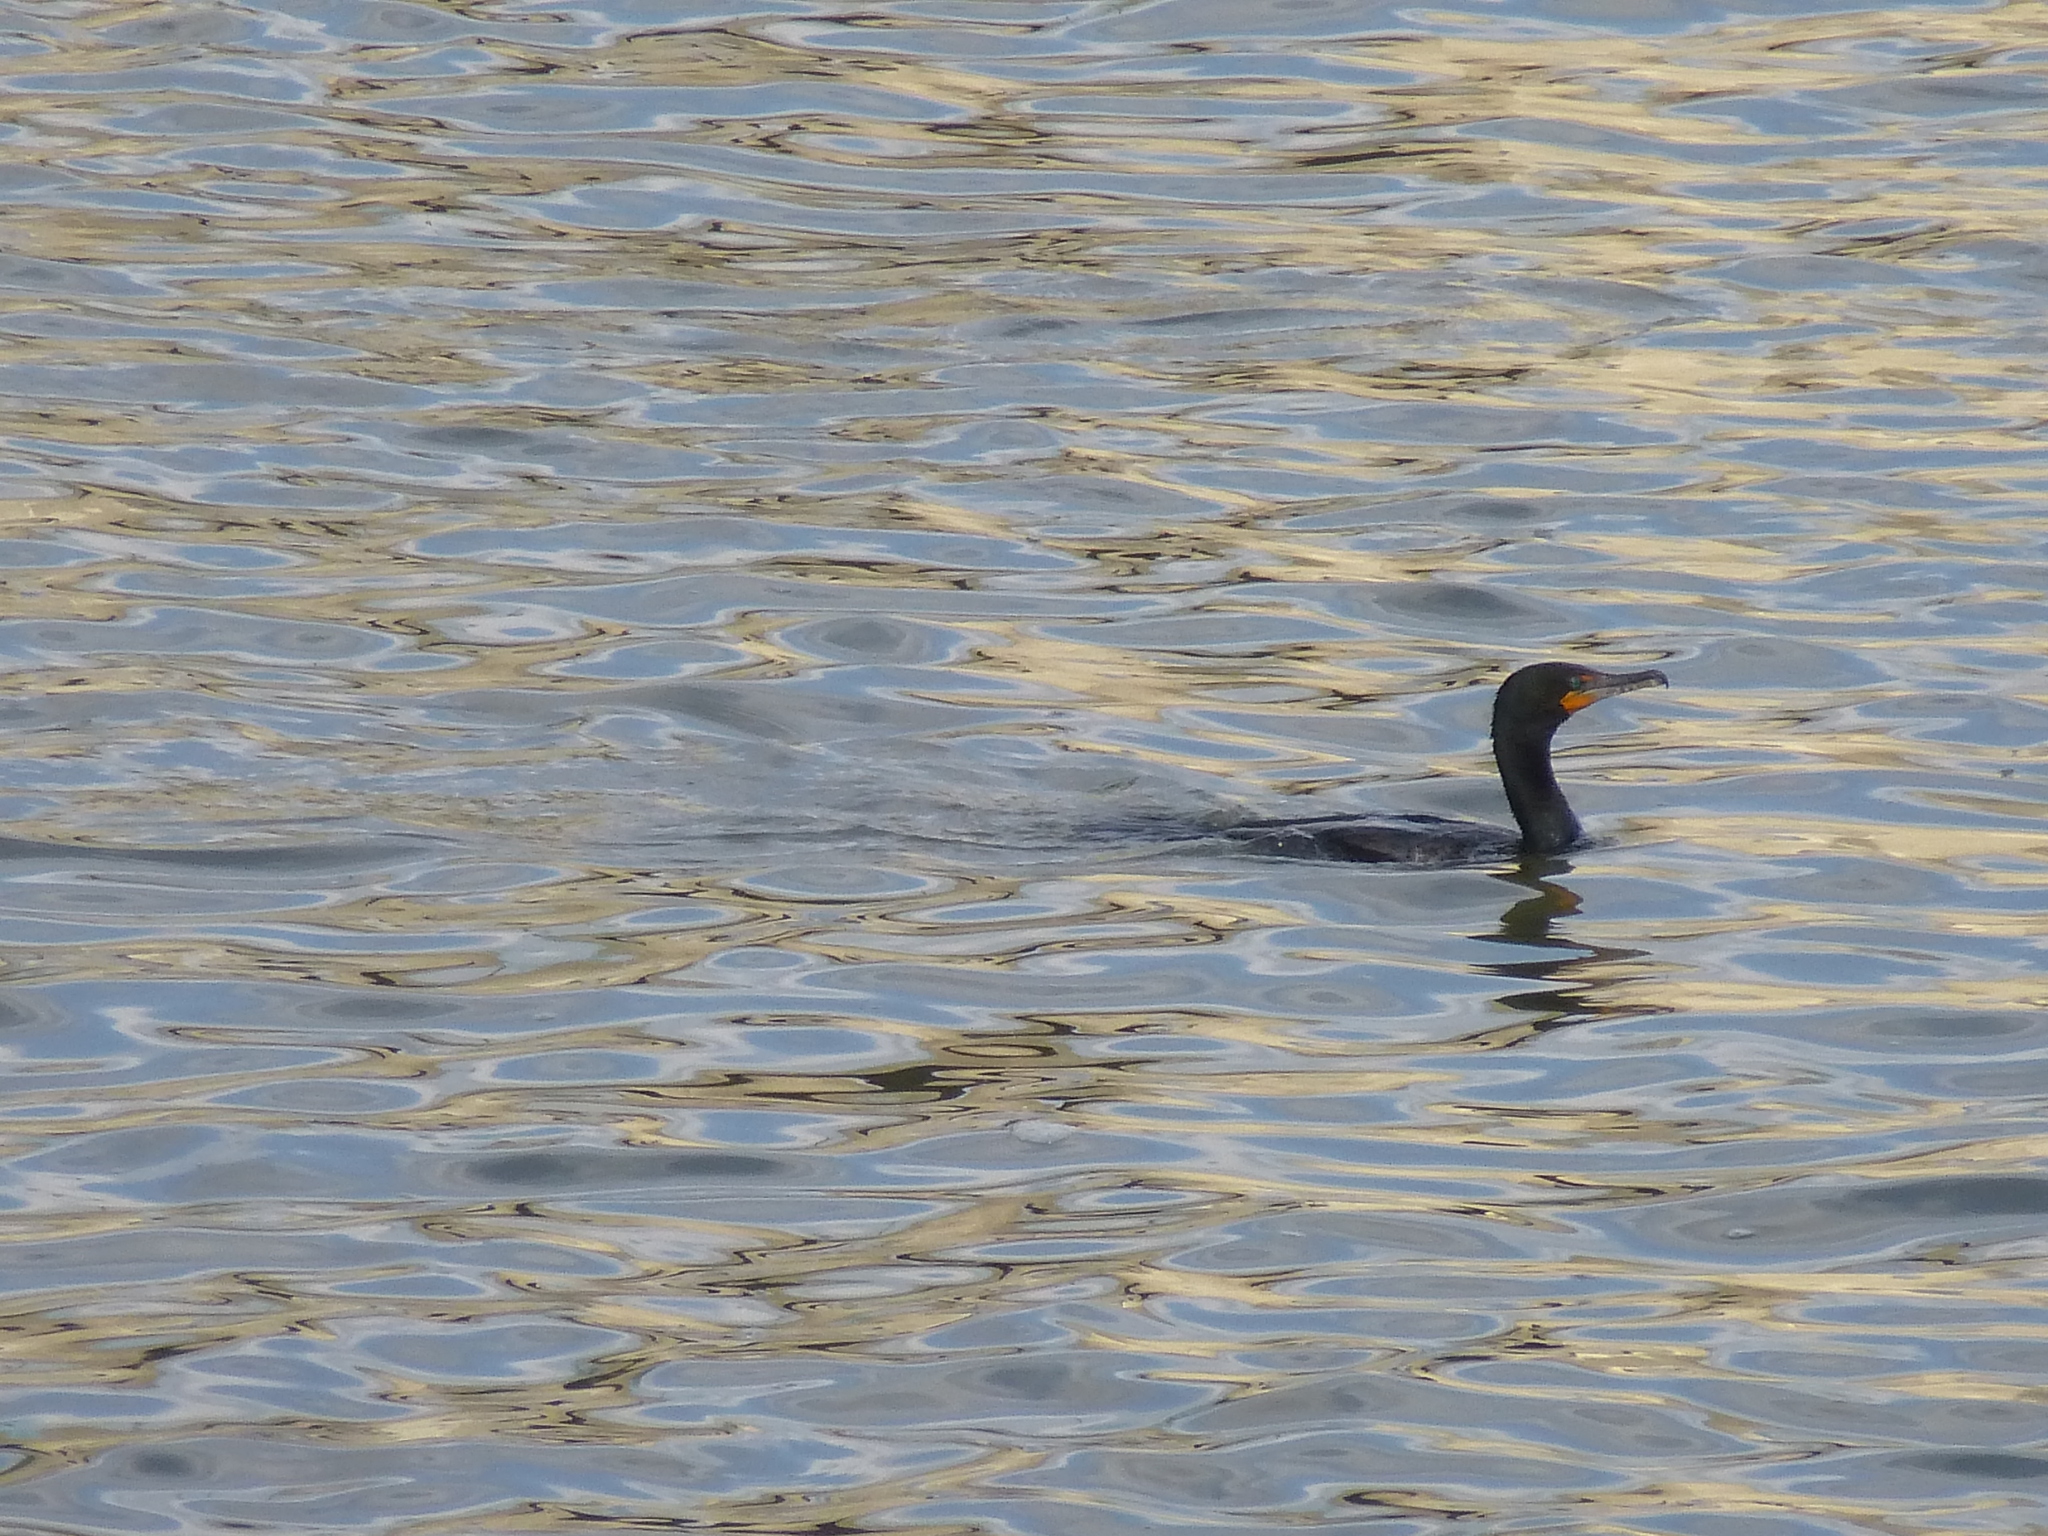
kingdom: Animalia
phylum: Chordata
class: Aves
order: Suliformes
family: Phalacrocoracidae
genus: Phalacrocorax
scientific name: Phalacrocorax auritus
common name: Double-crested cormorant
